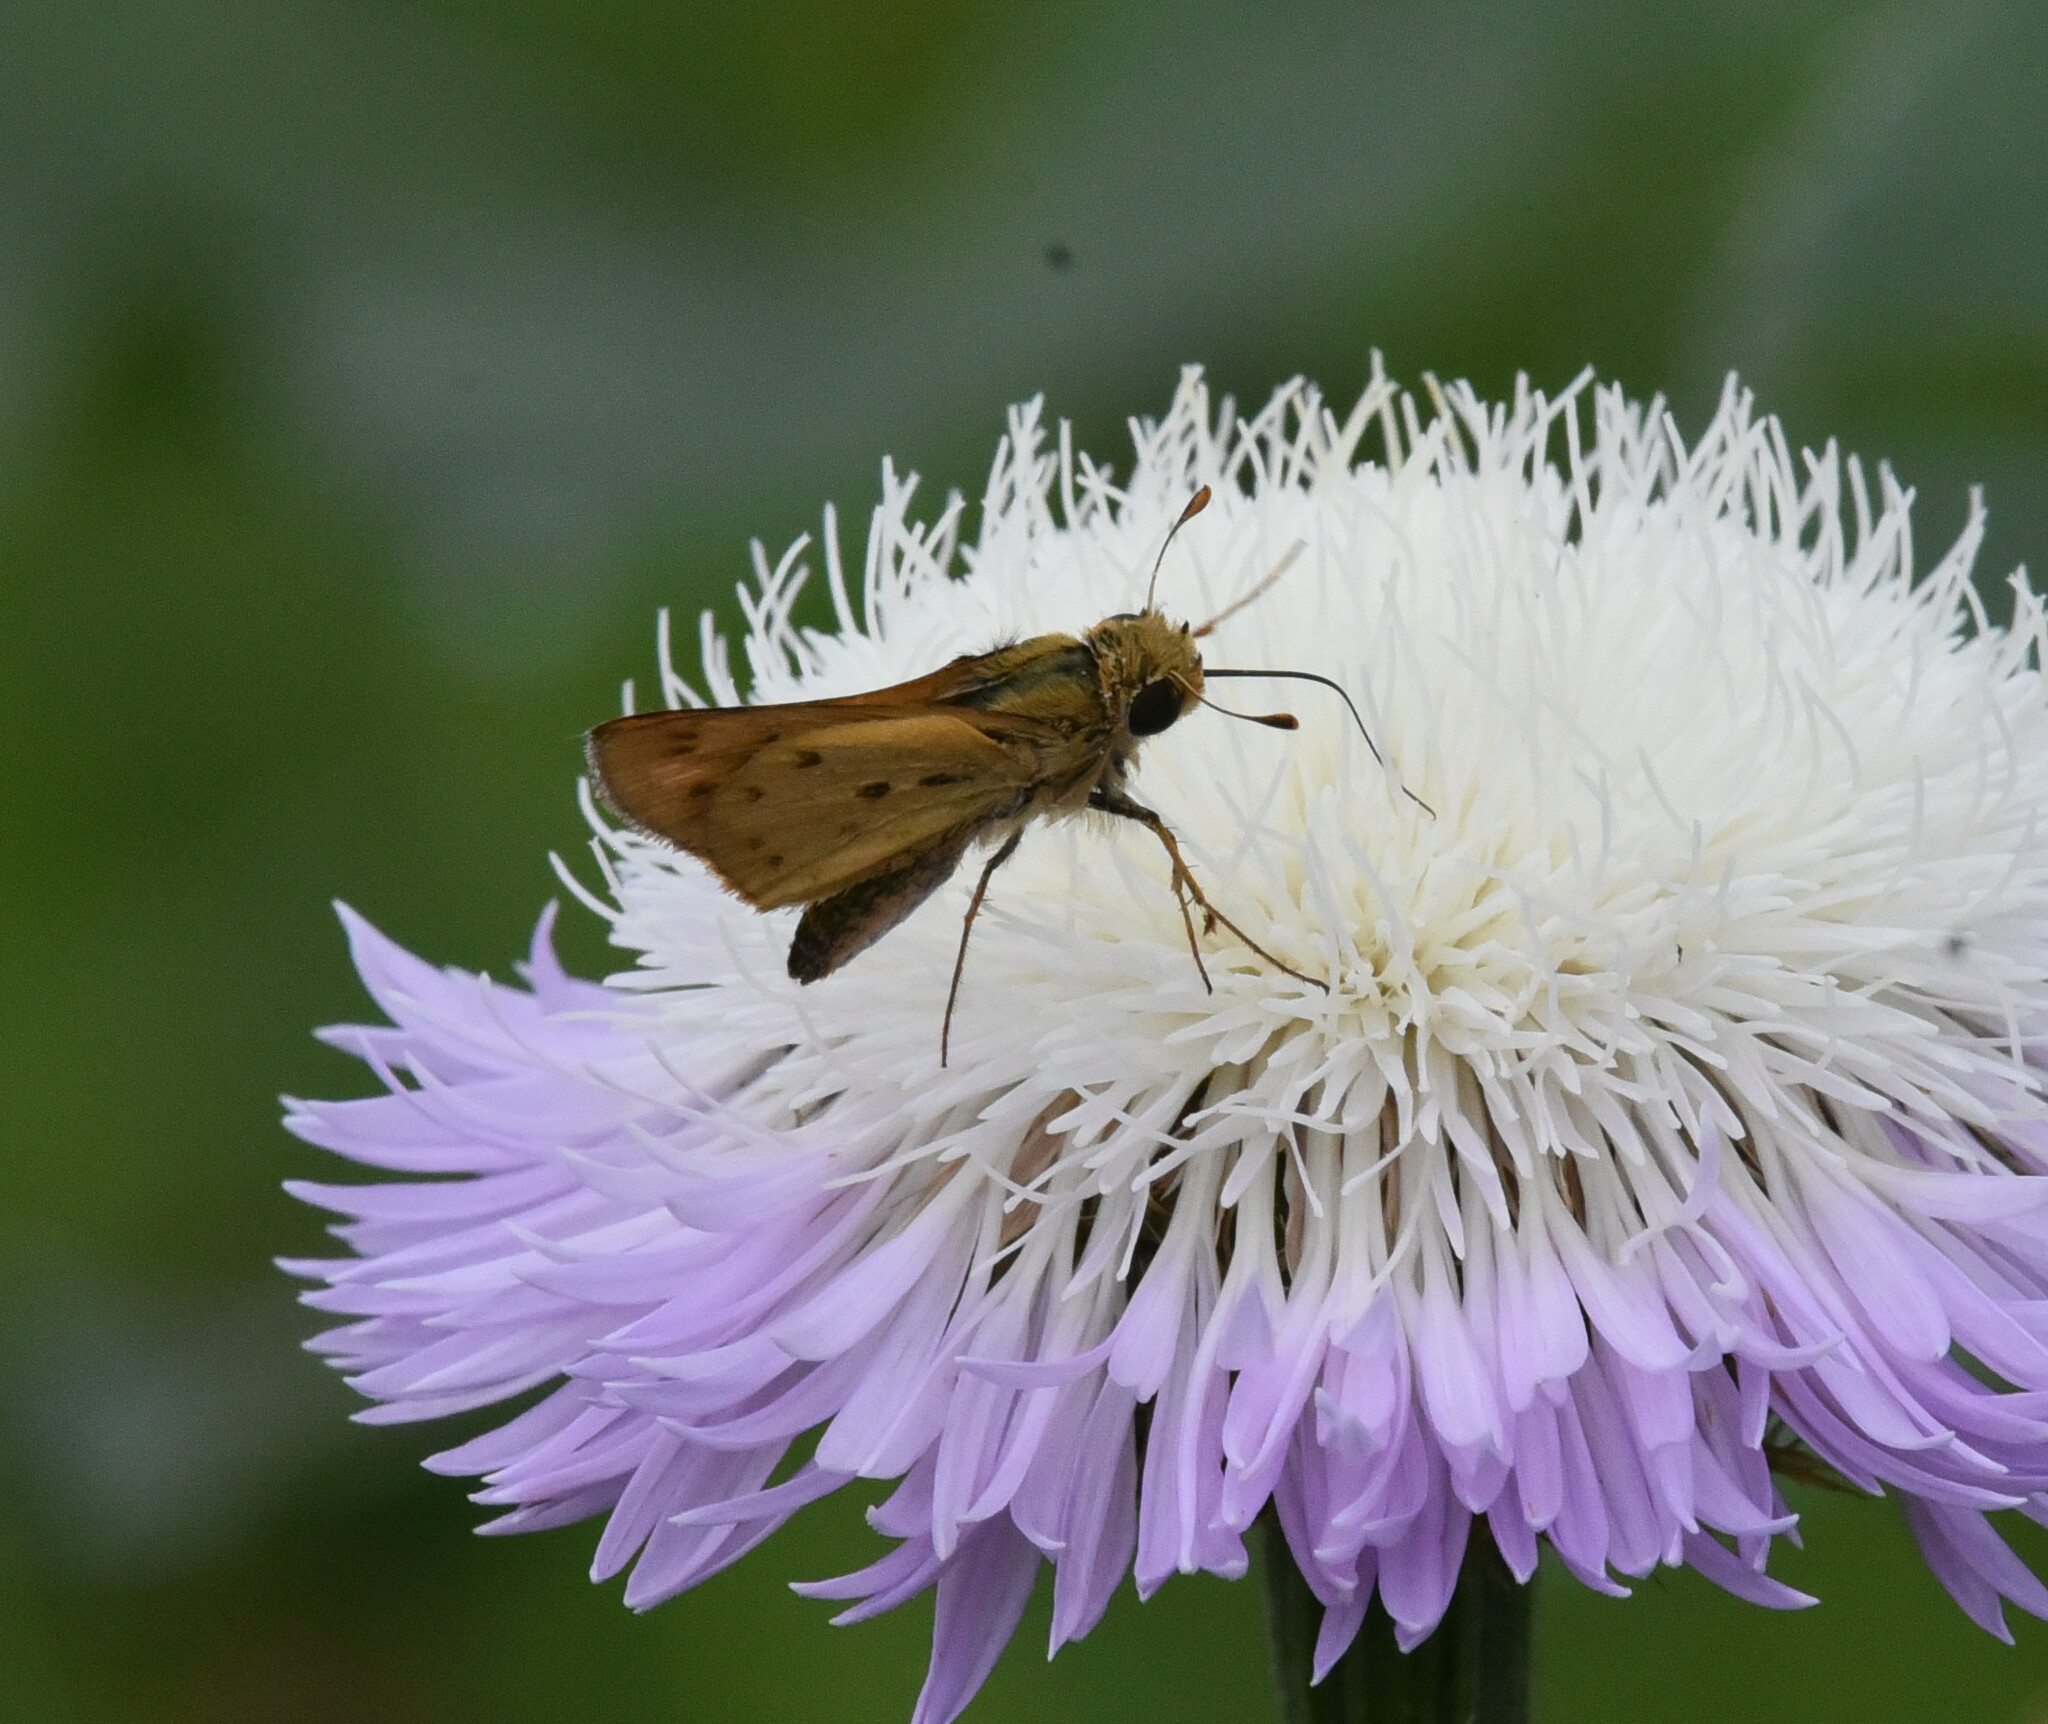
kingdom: Animalia
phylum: Arthropoda
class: Insecta
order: Lepidoptera
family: Hesperiidae
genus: Hylephila
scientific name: Hylephila phyleus
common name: Fiery skipper
